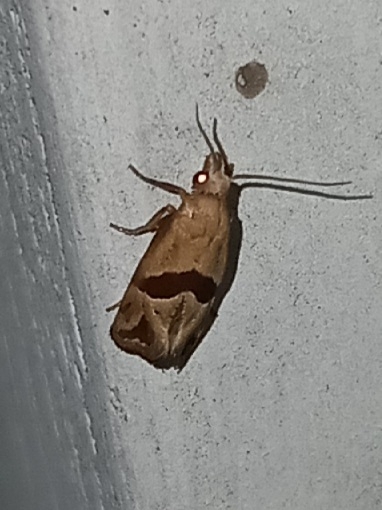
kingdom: Animalia
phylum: Arthropoda
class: Insecta
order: Lepidoptera
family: Tortricidae
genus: Eugnosta
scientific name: Eugnosta sartana
